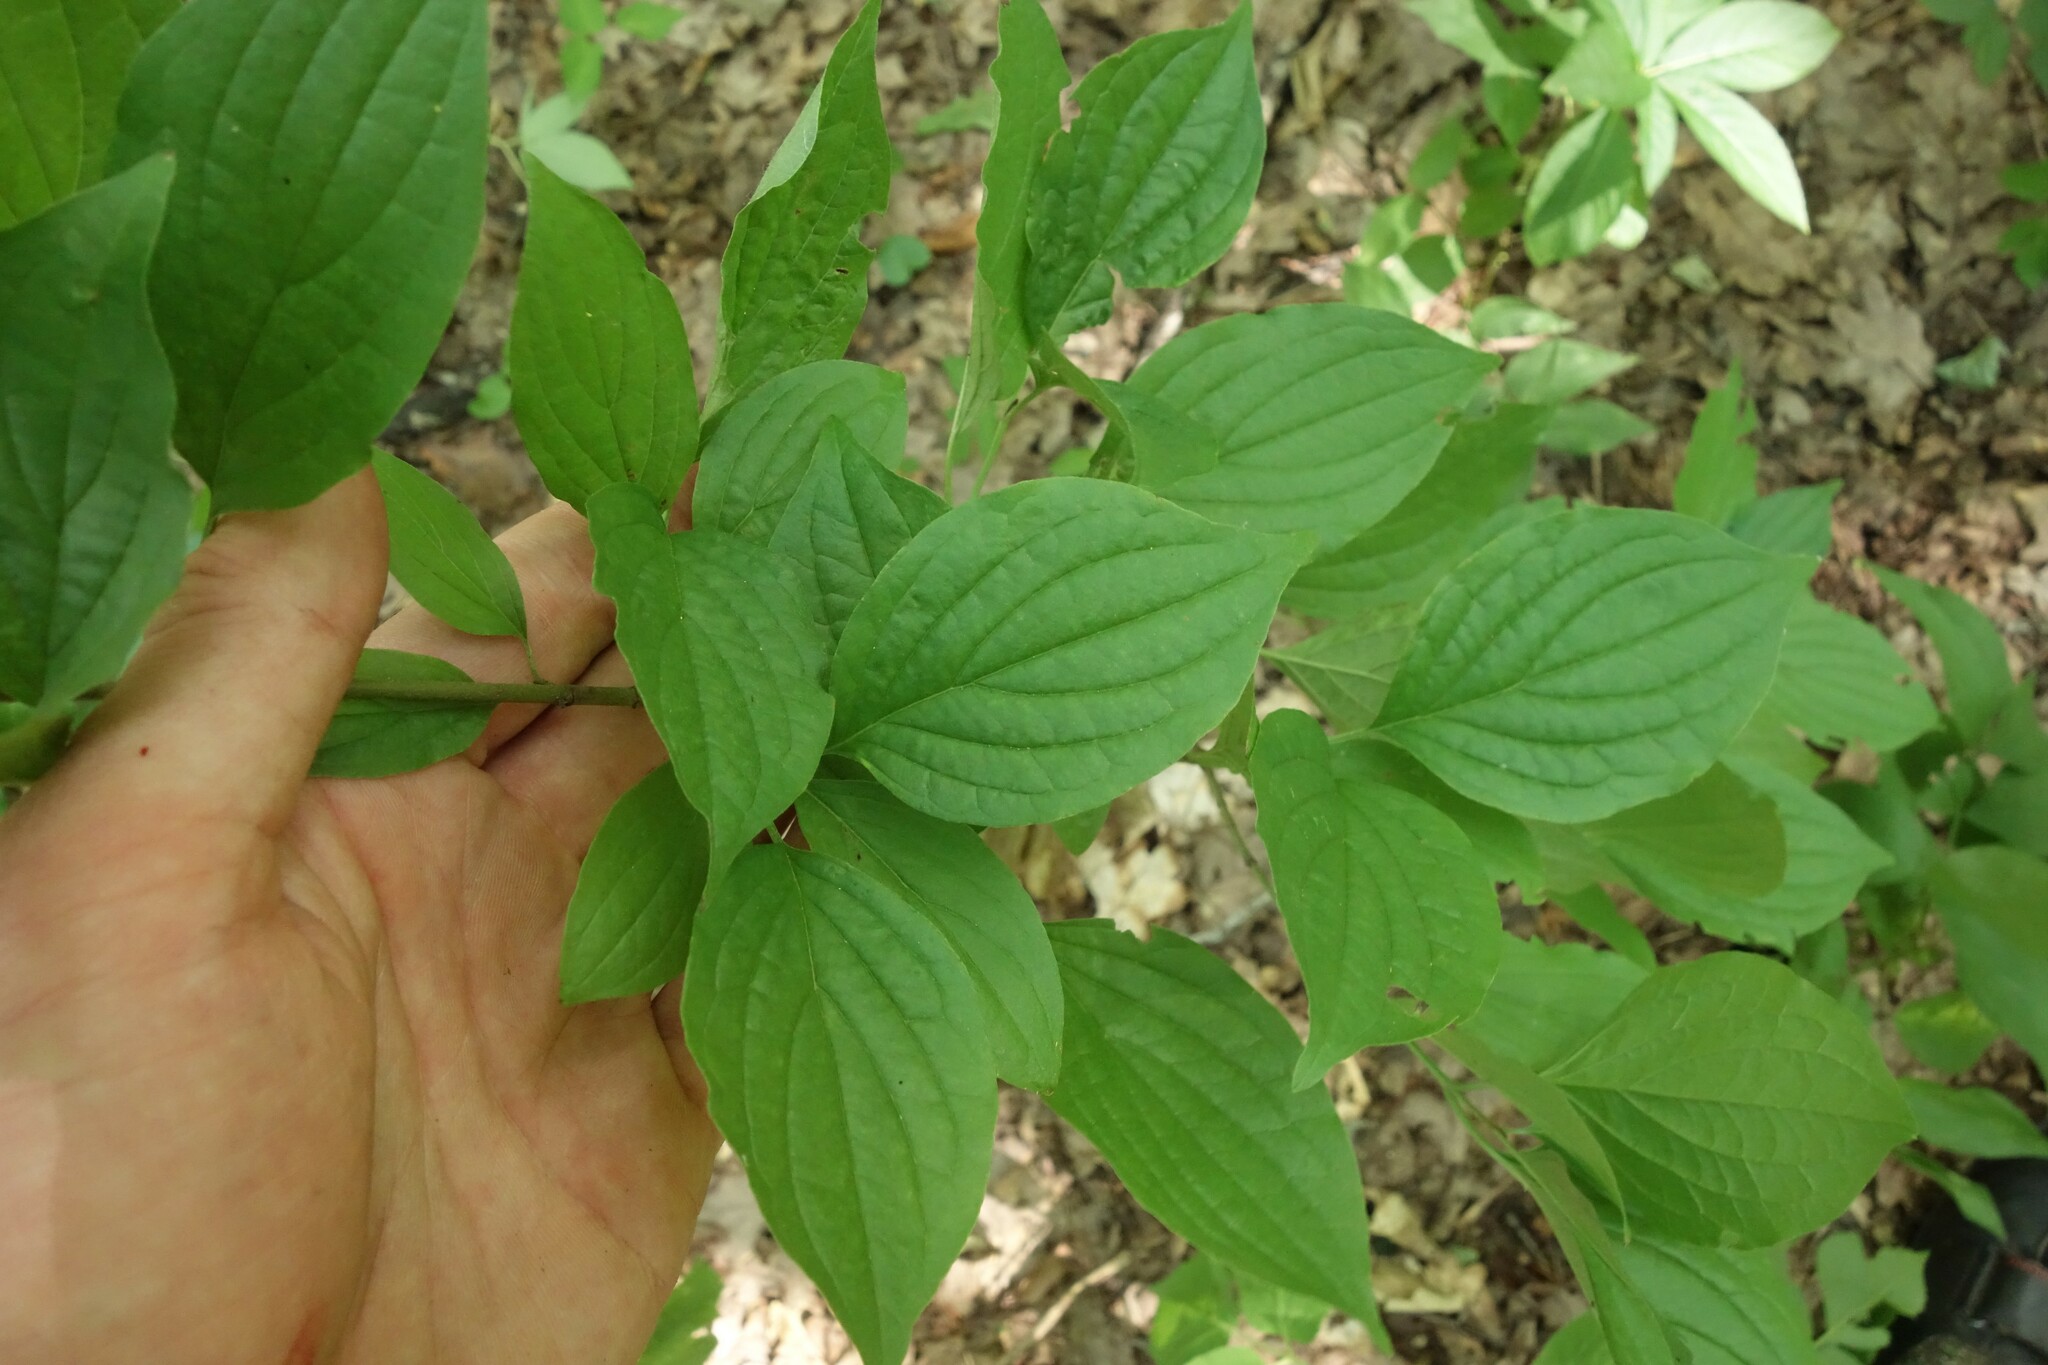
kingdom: Plantae
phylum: Tracheophyta
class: Magnoliopsida
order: Cornales
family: Cornaceae
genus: Cornus
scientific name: Cornus sanguinea
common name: Dogwood
